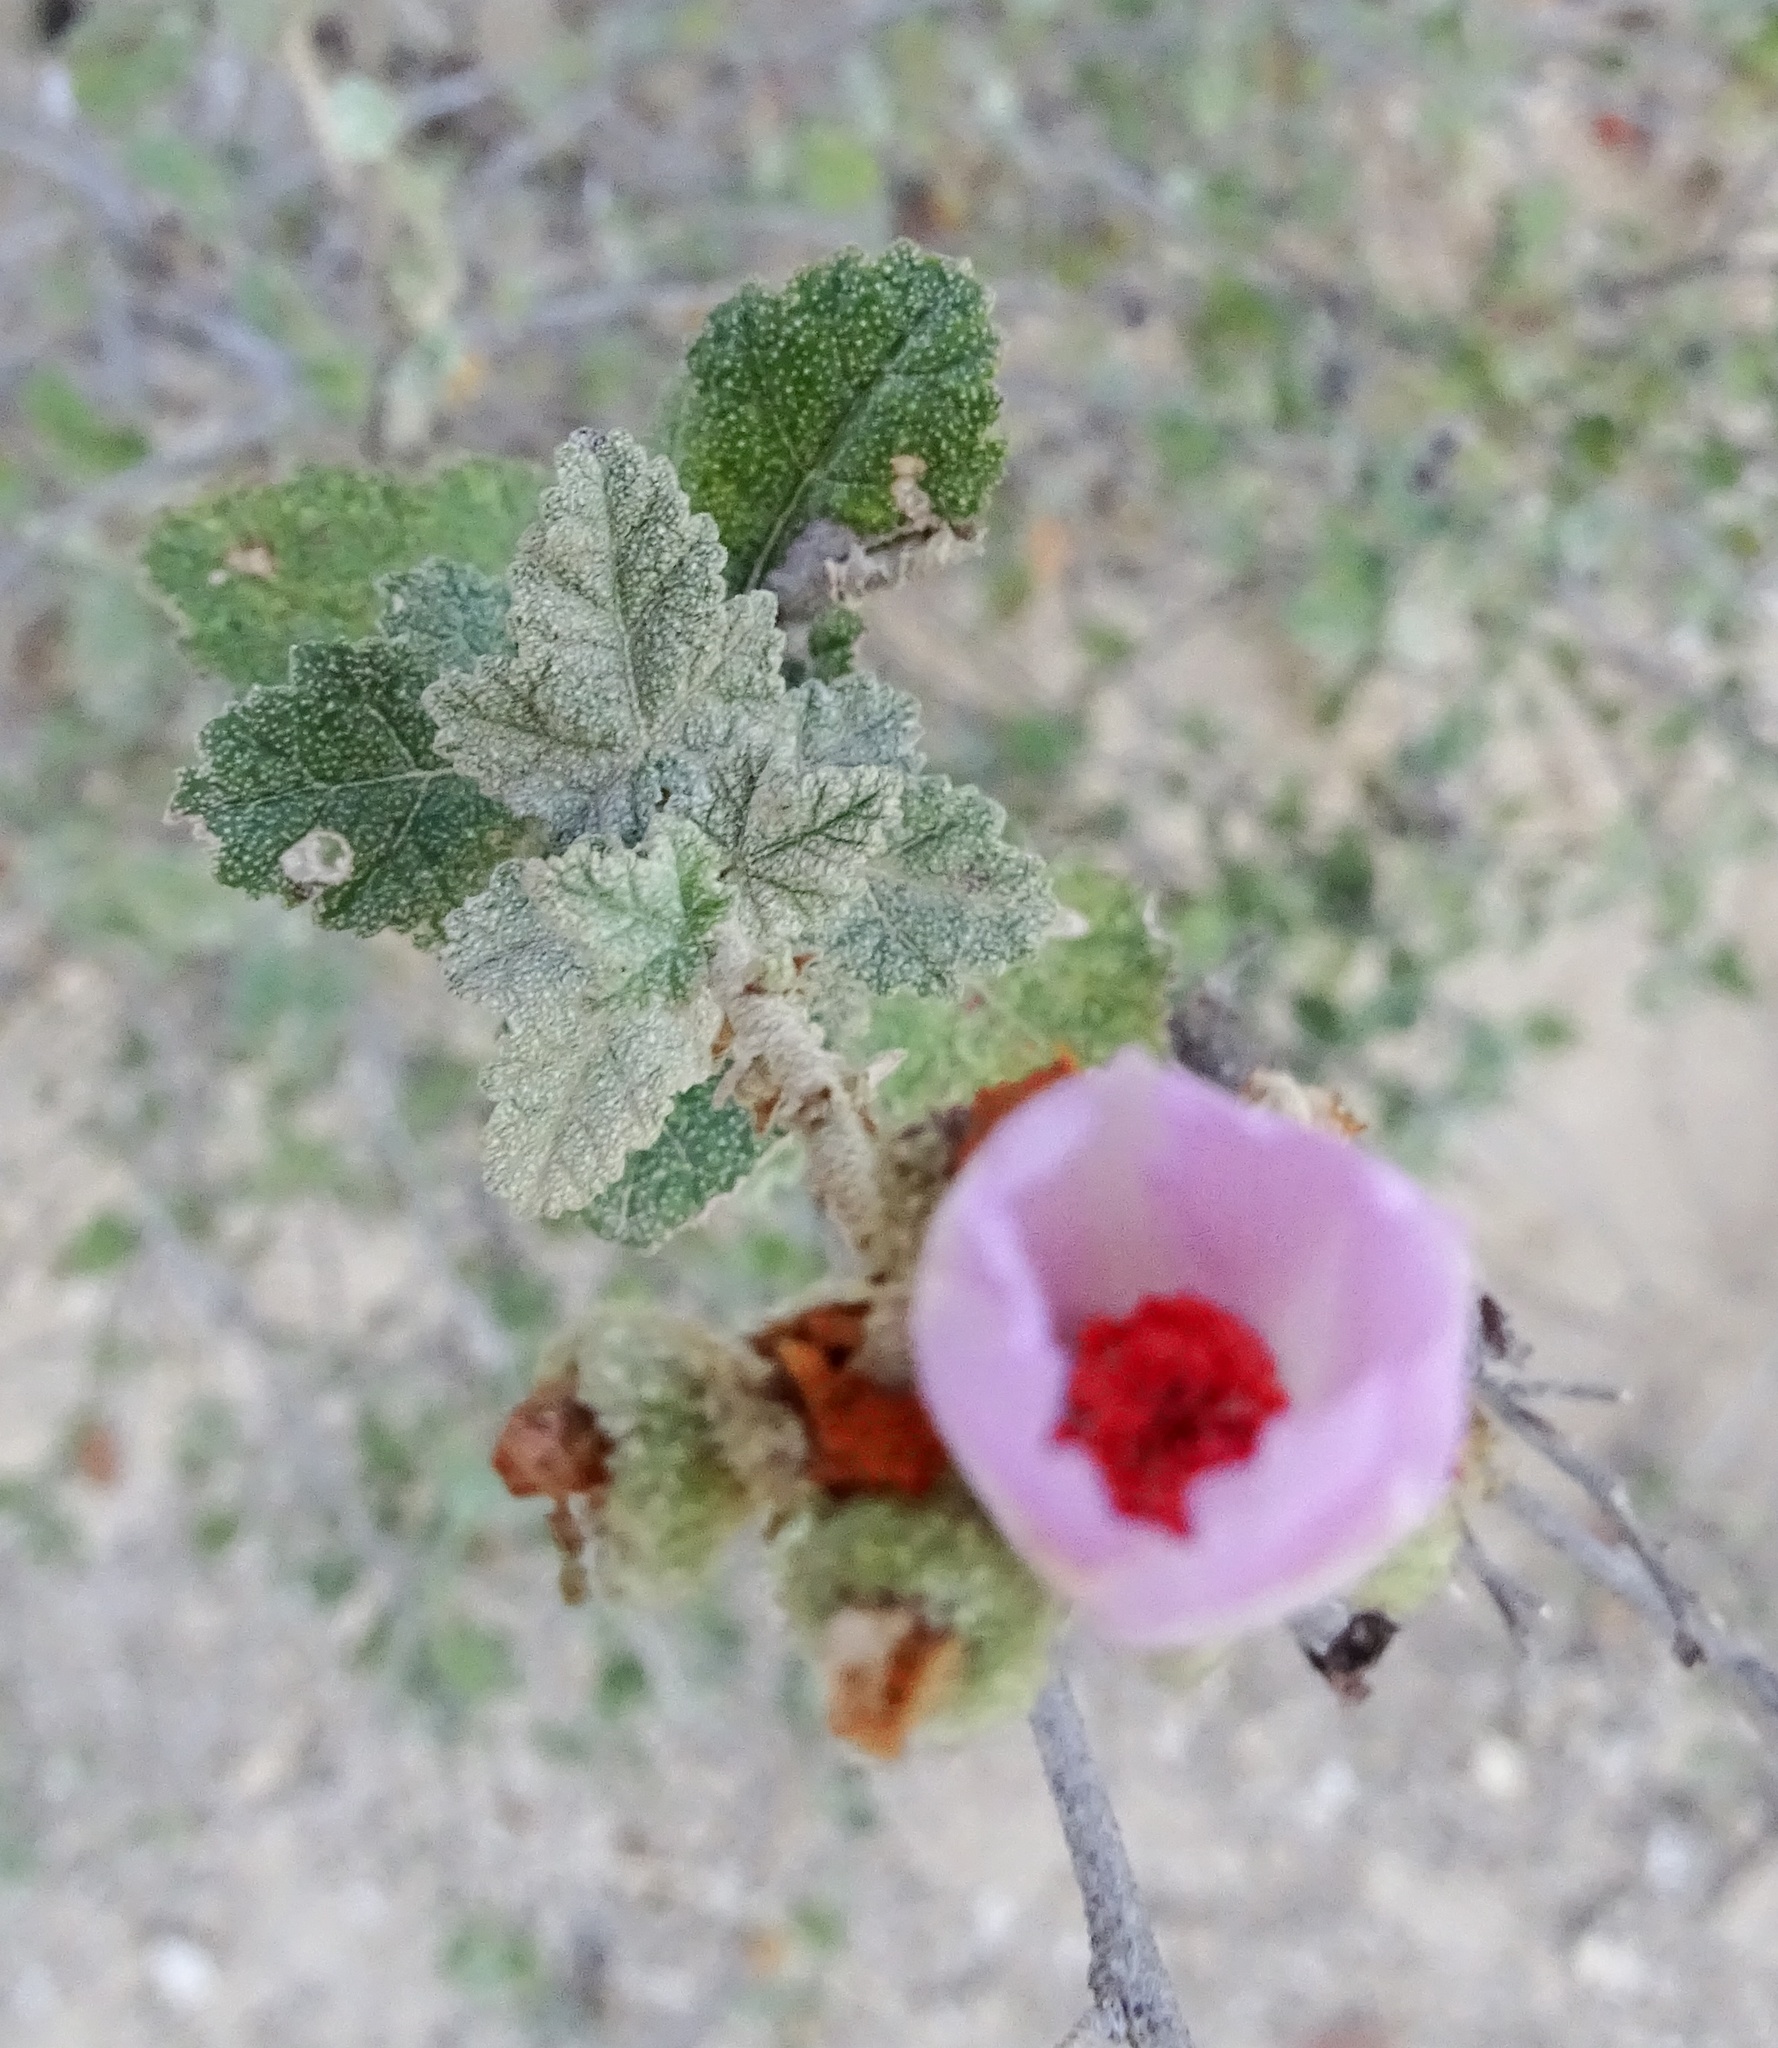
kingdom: Plantae
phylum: Tracheophyta
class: Magnoliopsida
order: Malvales
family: Malvaceae
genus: Malacothamnus
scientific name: Malacothamnus fasciculatus
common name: Sant cruz island bush-mallow
